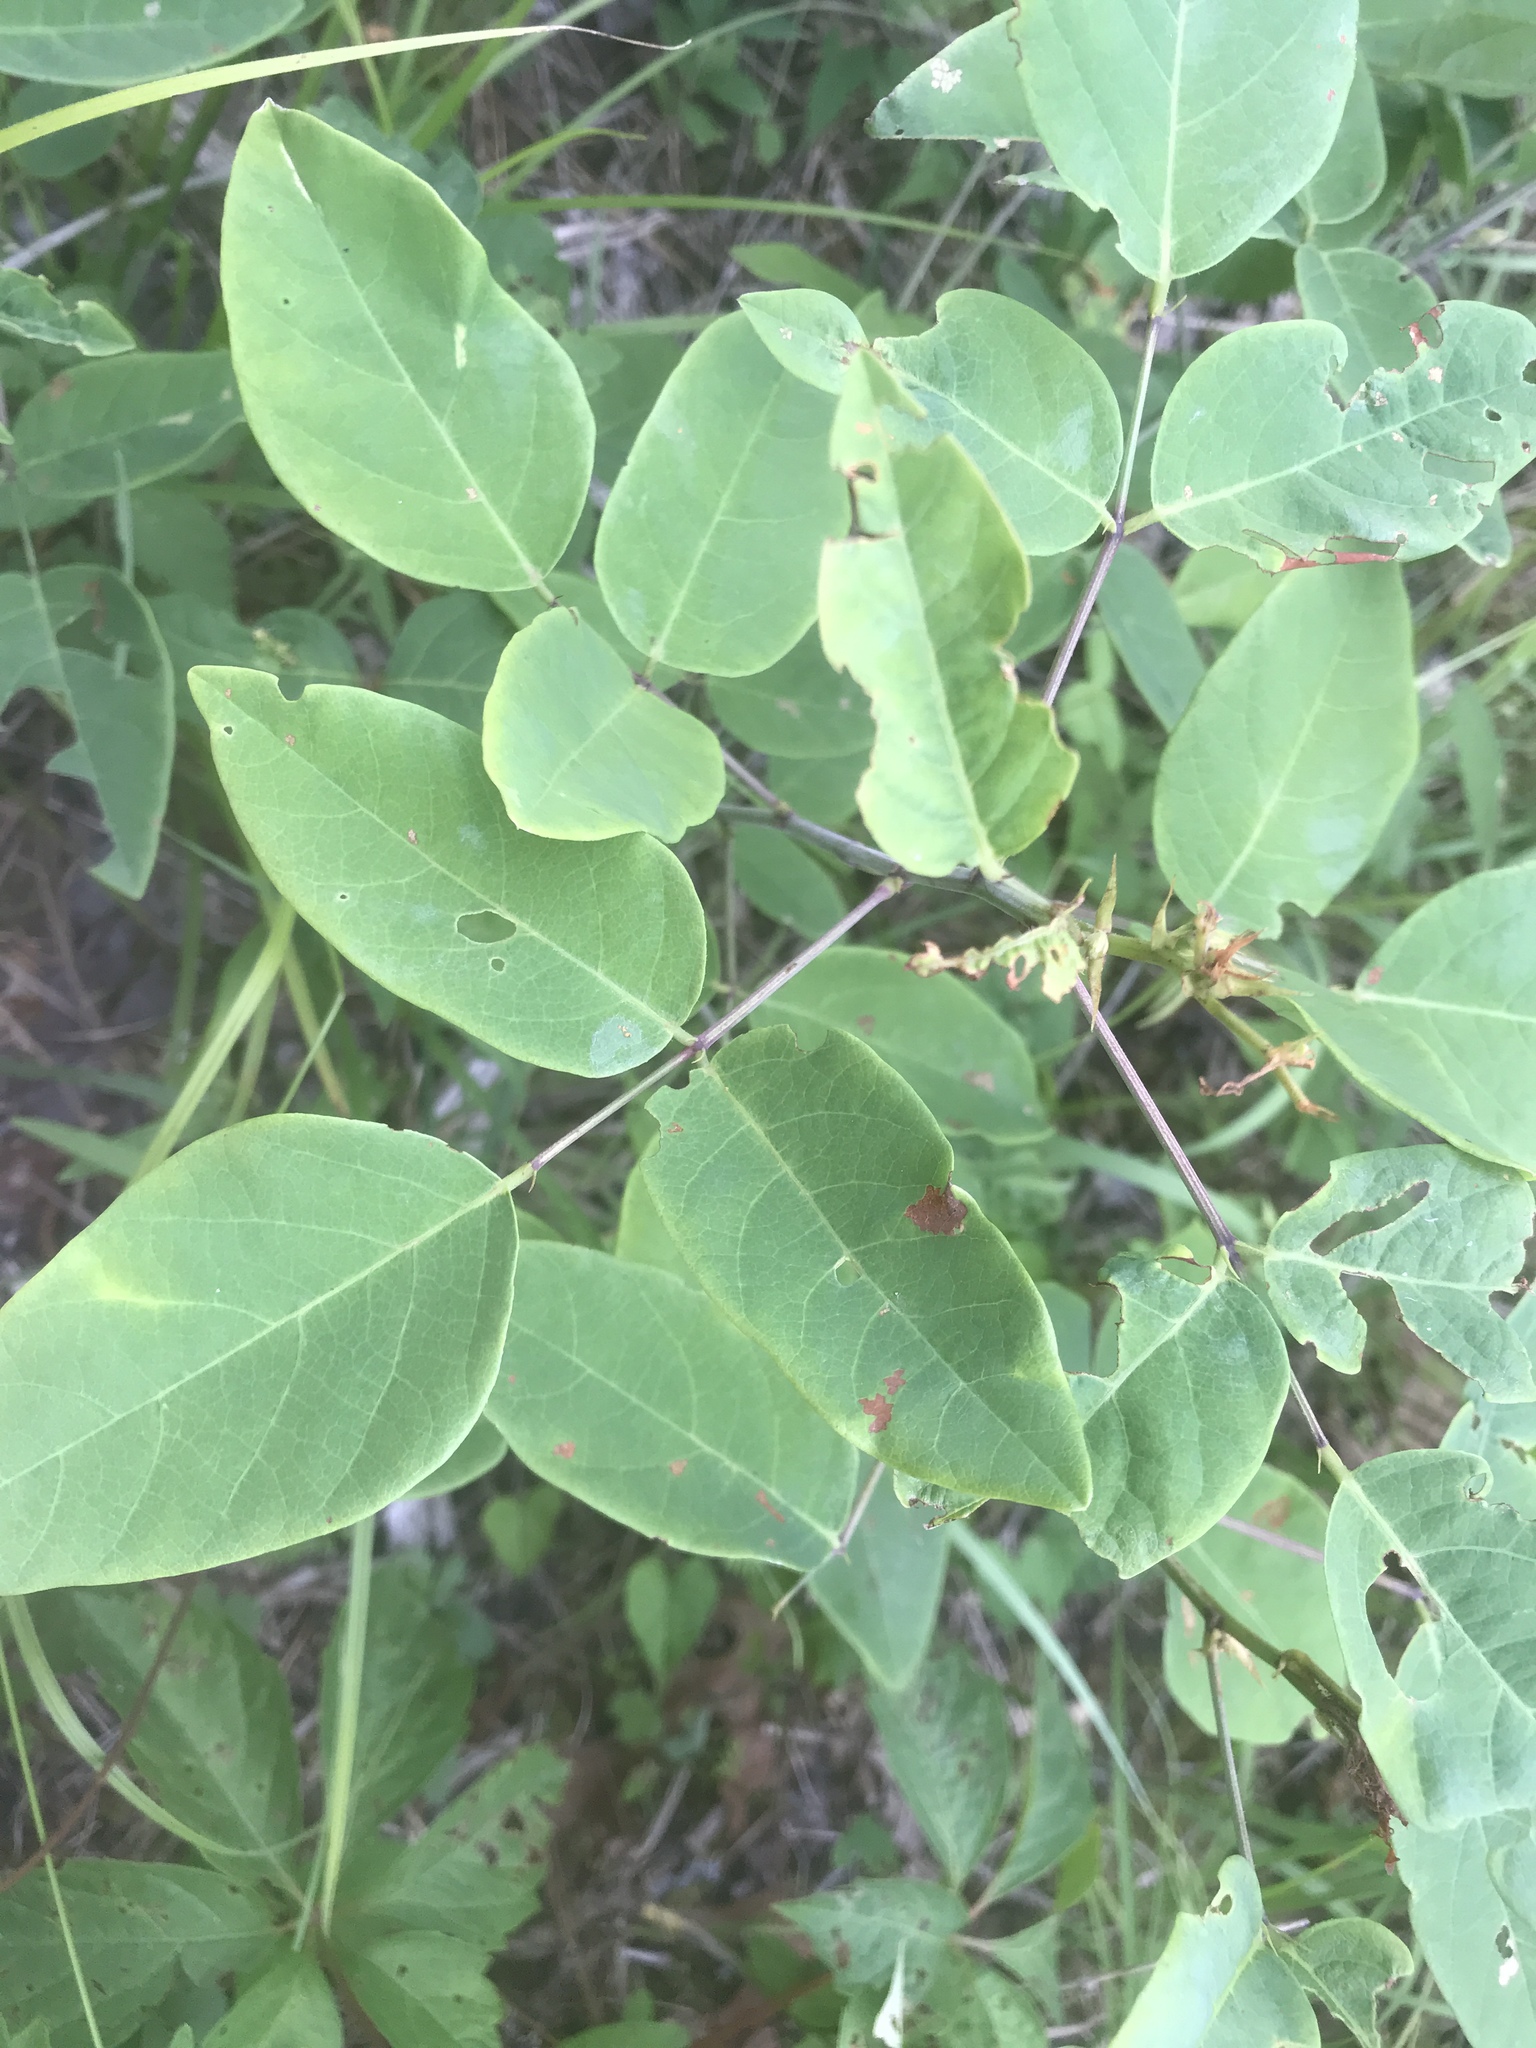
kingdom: Plantae
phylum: Tracheophyta
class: Magnoliopsida
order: Fabales
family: Fabaceae
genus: Desmodium
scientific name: Desmodium laevigatum
